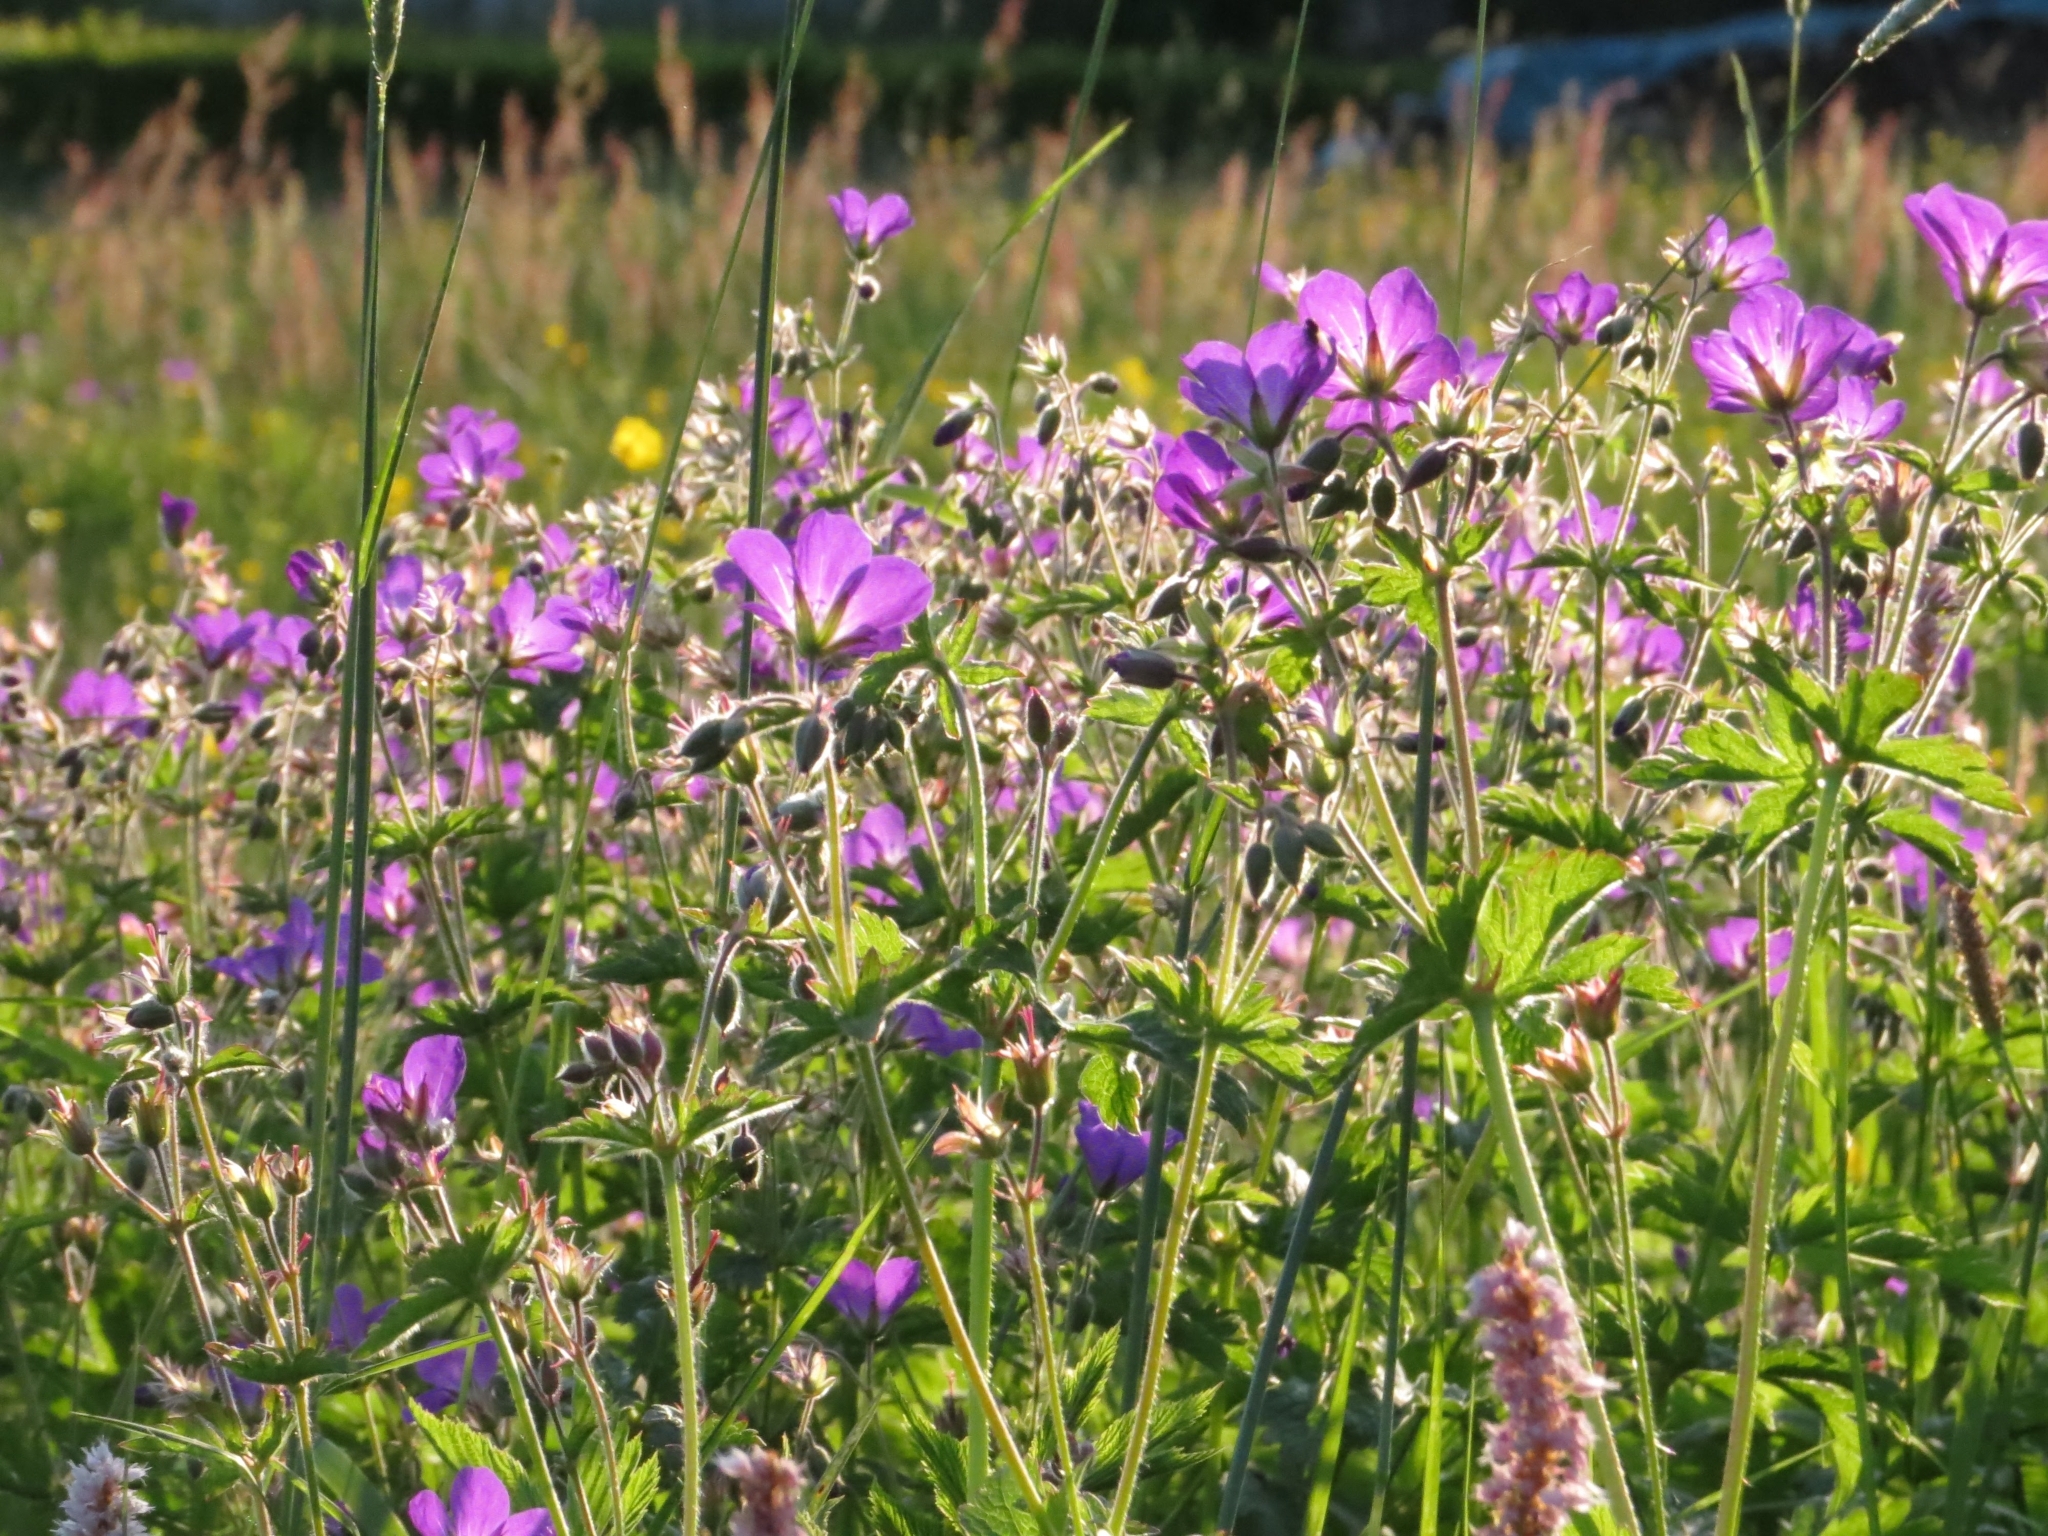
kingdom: Plantae
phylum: Tracheophyta
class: Magnoliopsida
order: Geraniales
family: Geraniaceae
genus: Geranium
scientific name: Geranium sylvaticum
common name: Wood crane's-bill
